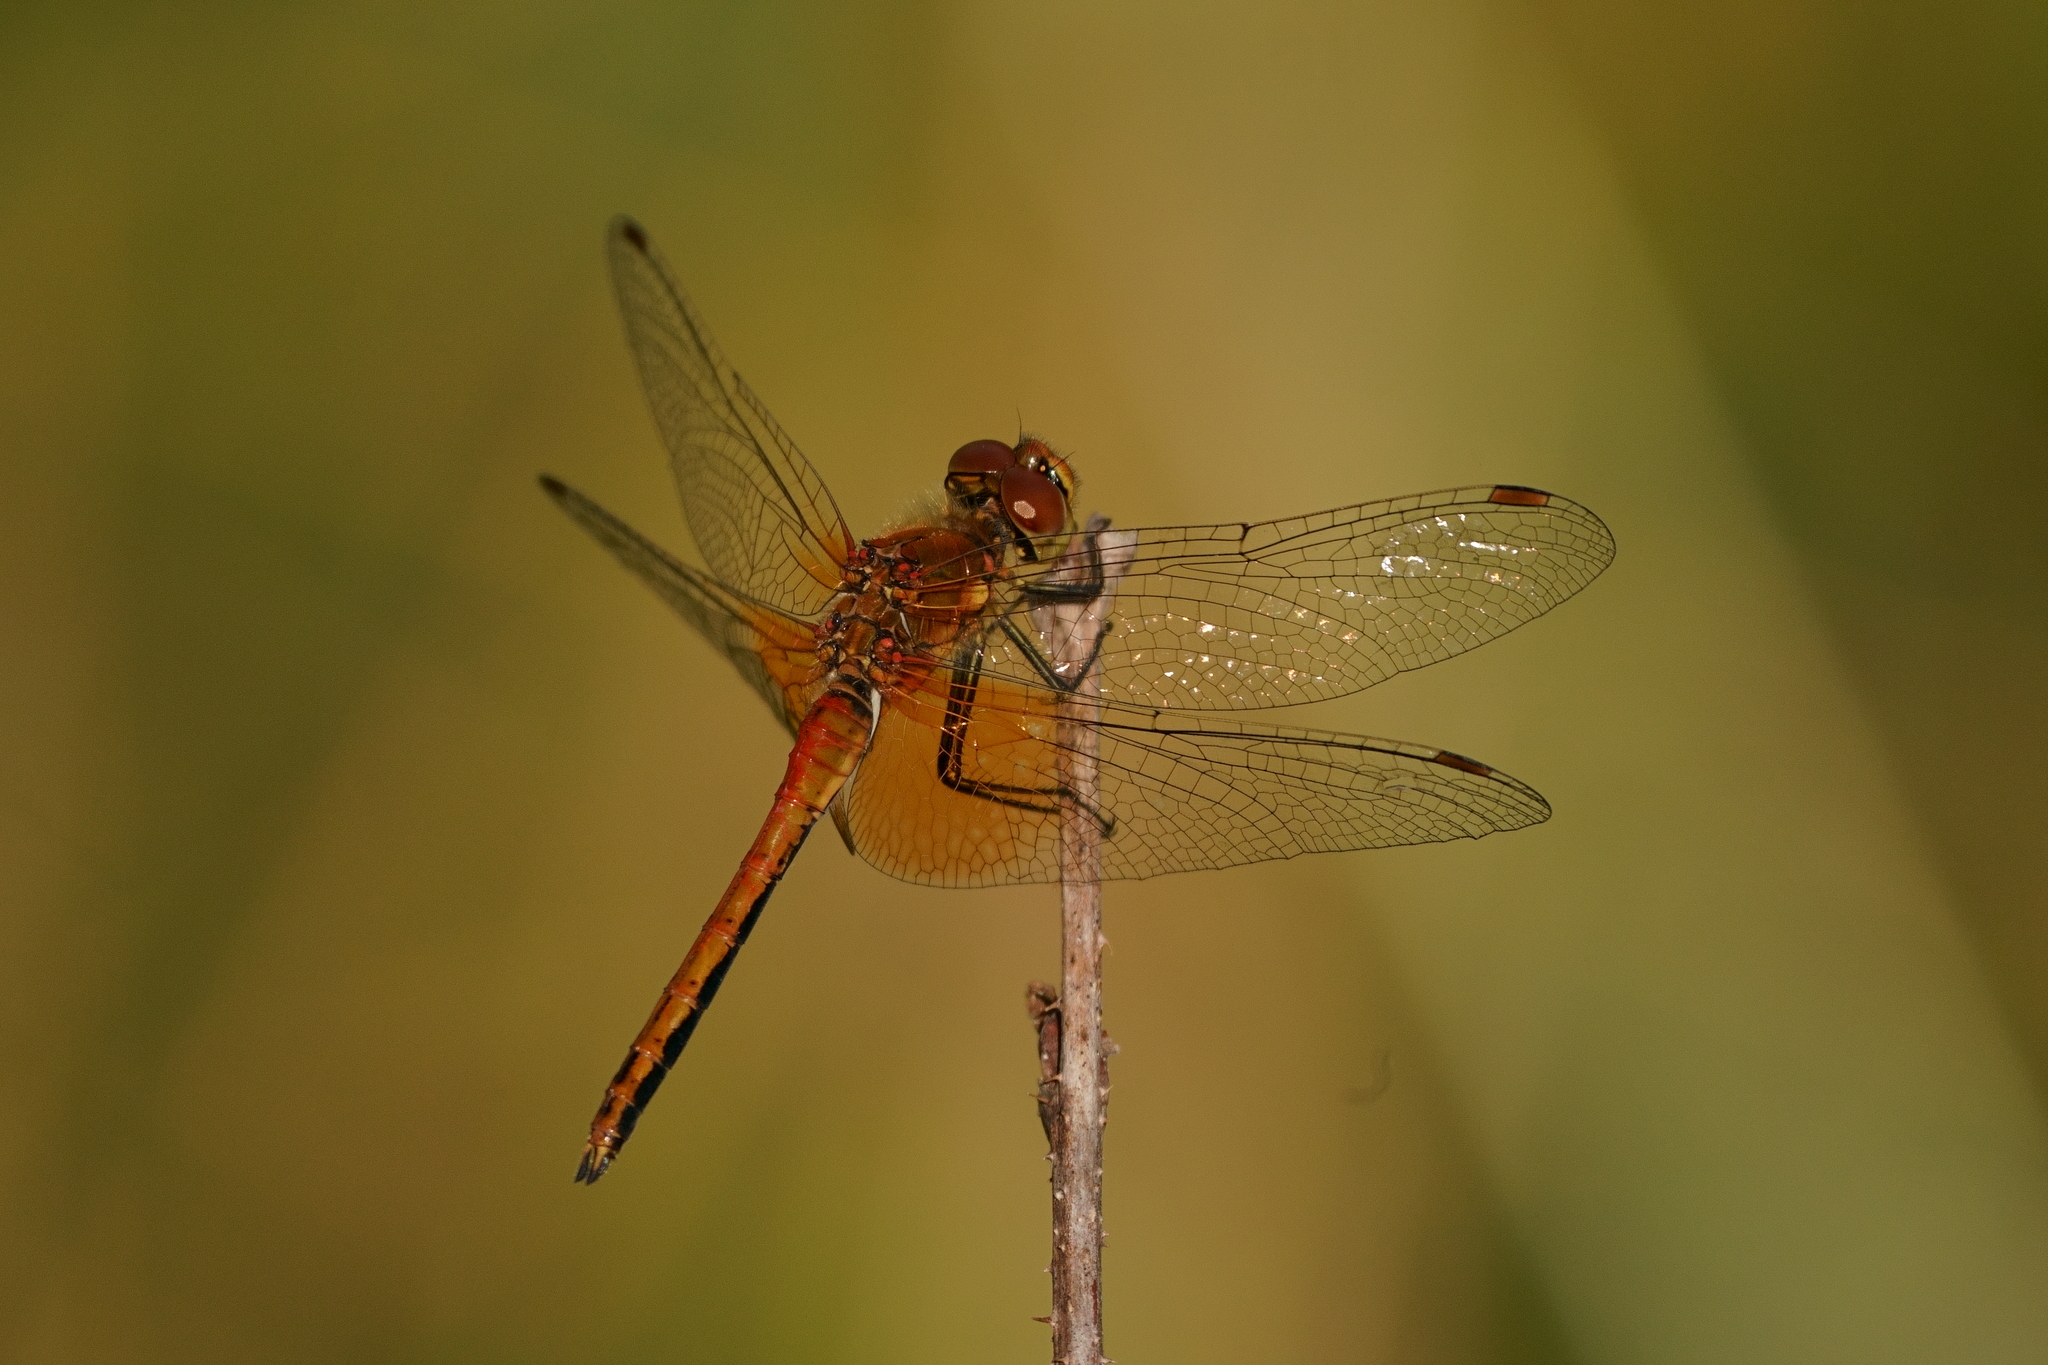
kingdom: Animalia
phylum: Arthropoda
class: Insecta
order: Odonata
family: Libellulidae
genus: Sympetrum
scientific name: Sympetrum flaveolum
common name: Yellow-winged darter
